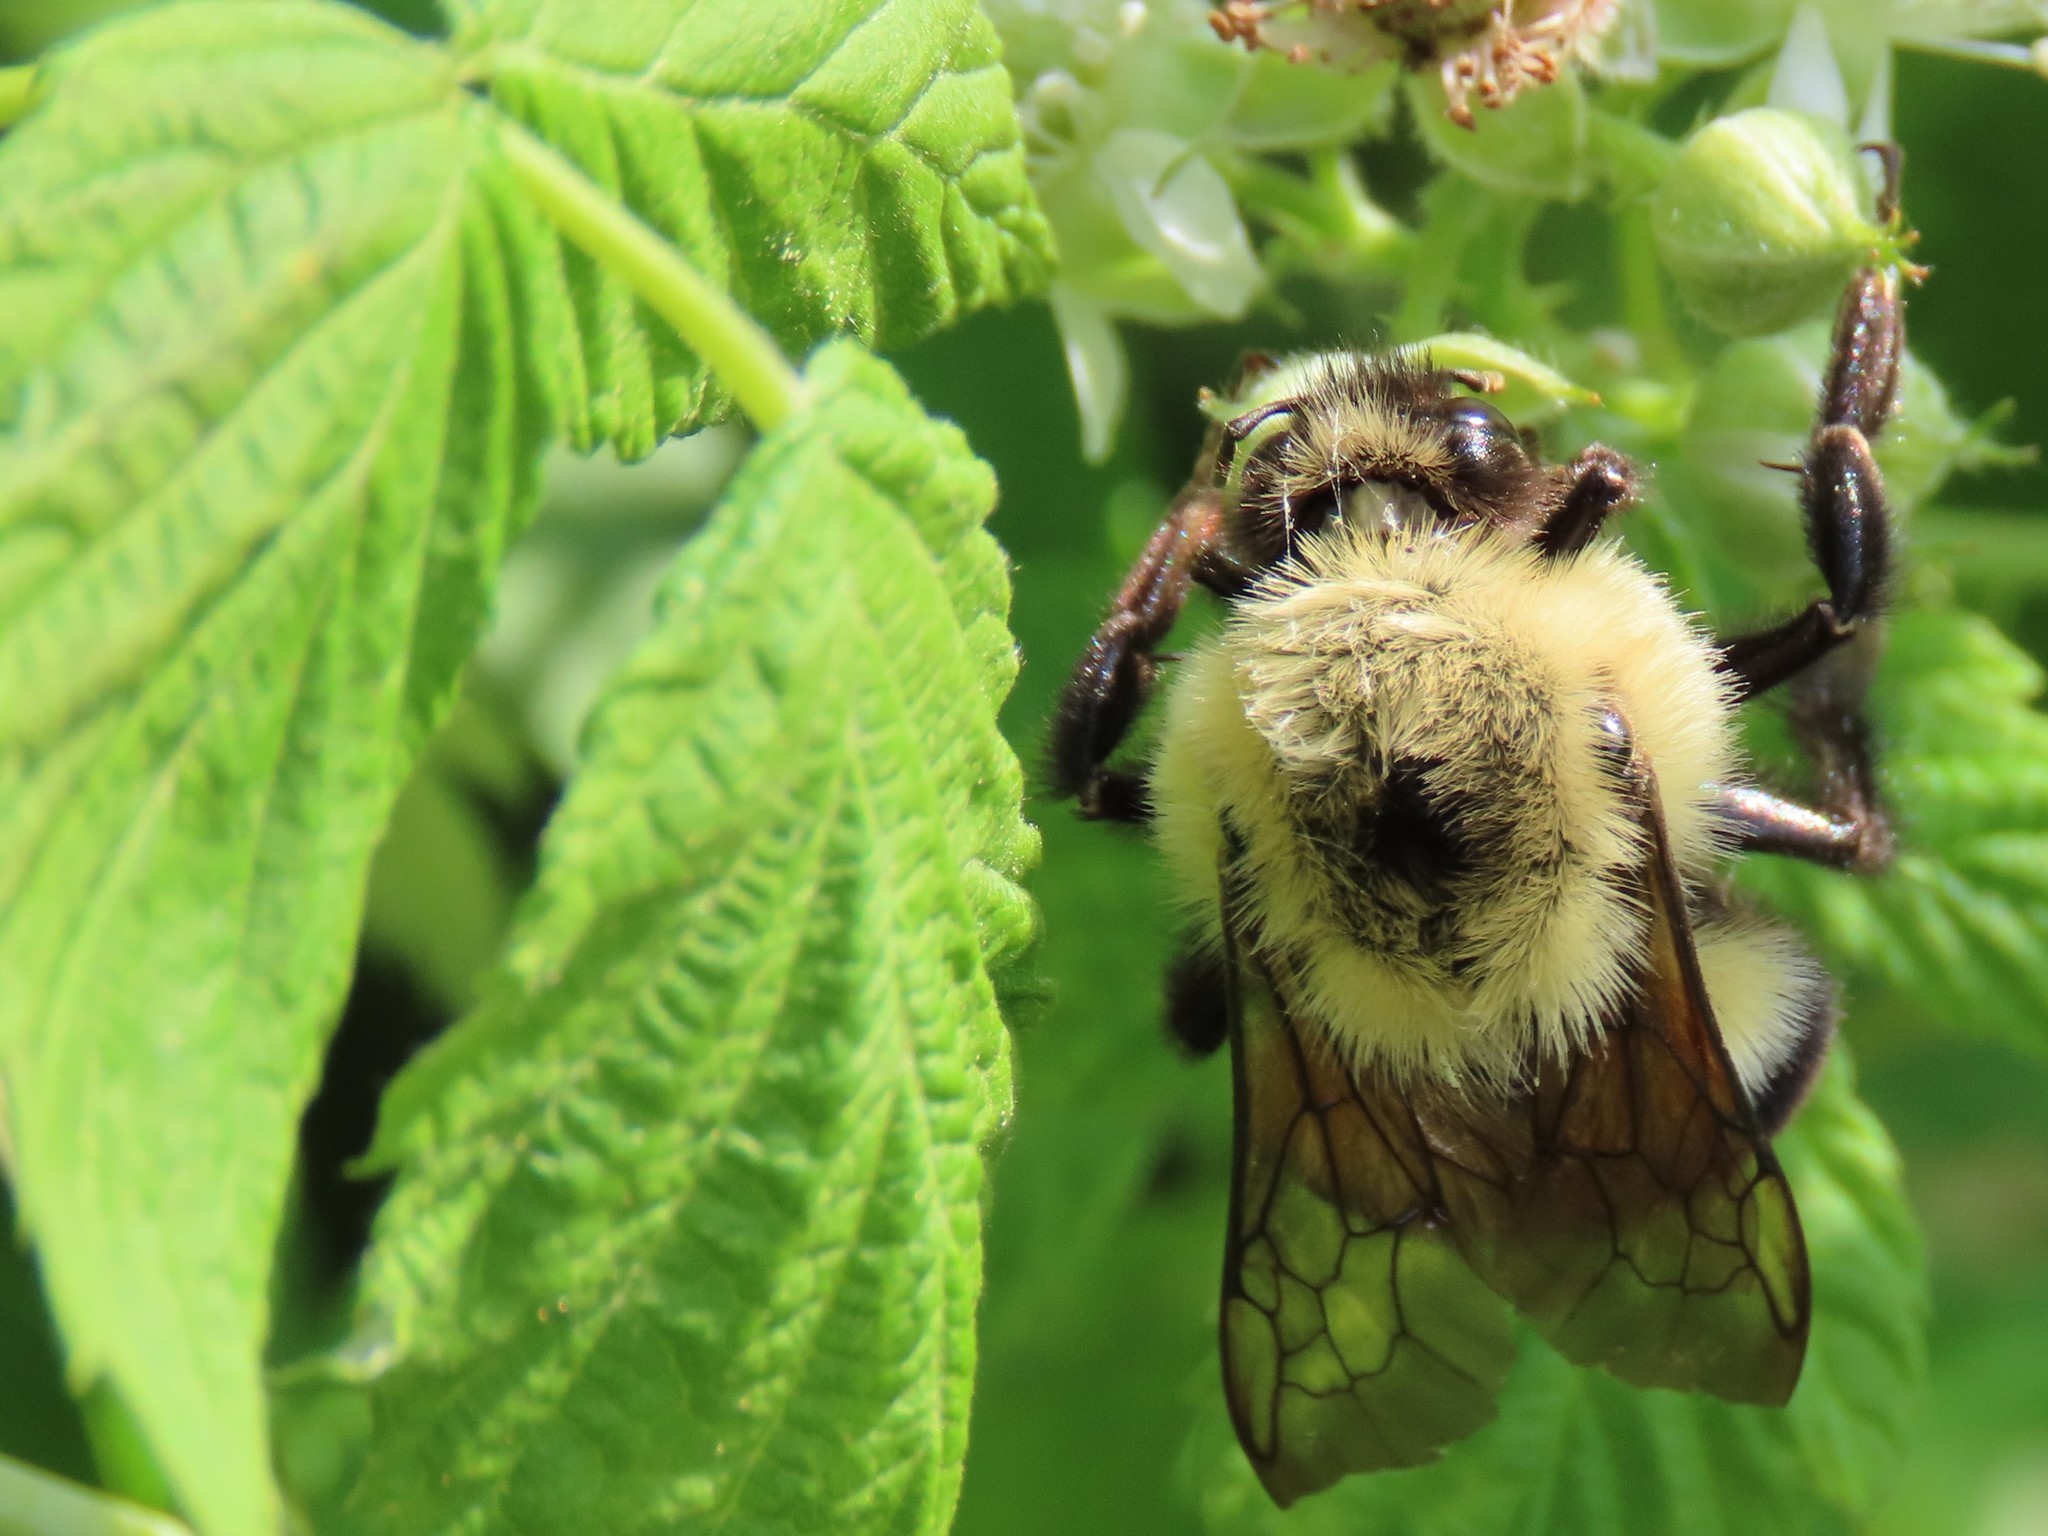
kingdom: Animalia
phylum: Arthropoda
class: Insecta
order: Hymenoptera
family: Apidae
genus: Bombus
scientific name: Bombus bimaculatus
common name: Two-spotted bumble bee
